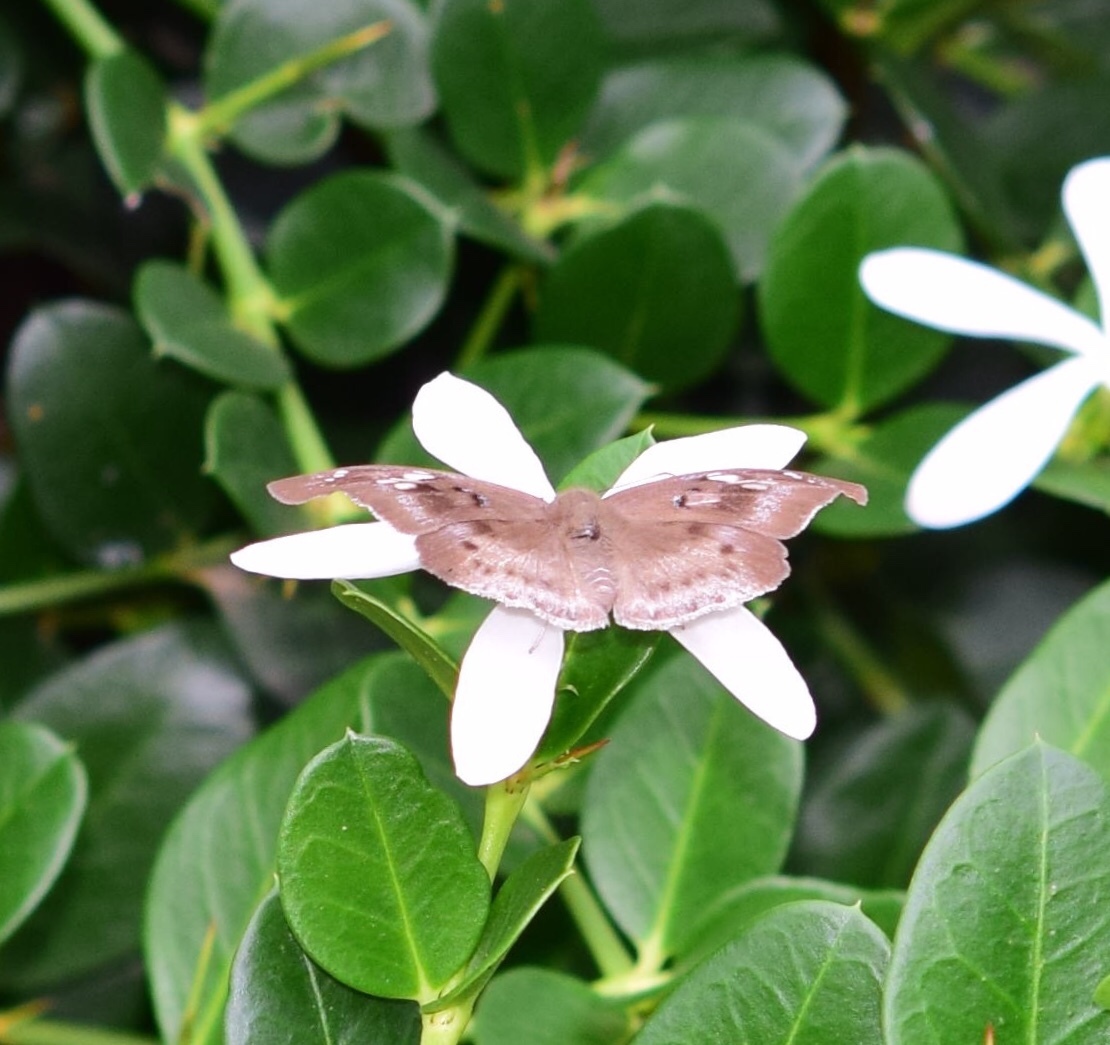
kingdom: Animalia
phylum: Arthropoda
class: Insecta
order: Lepidoptera
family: Hesperiidae
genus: Tagiades
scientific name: Tagiades flesus
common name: Clouded flat
